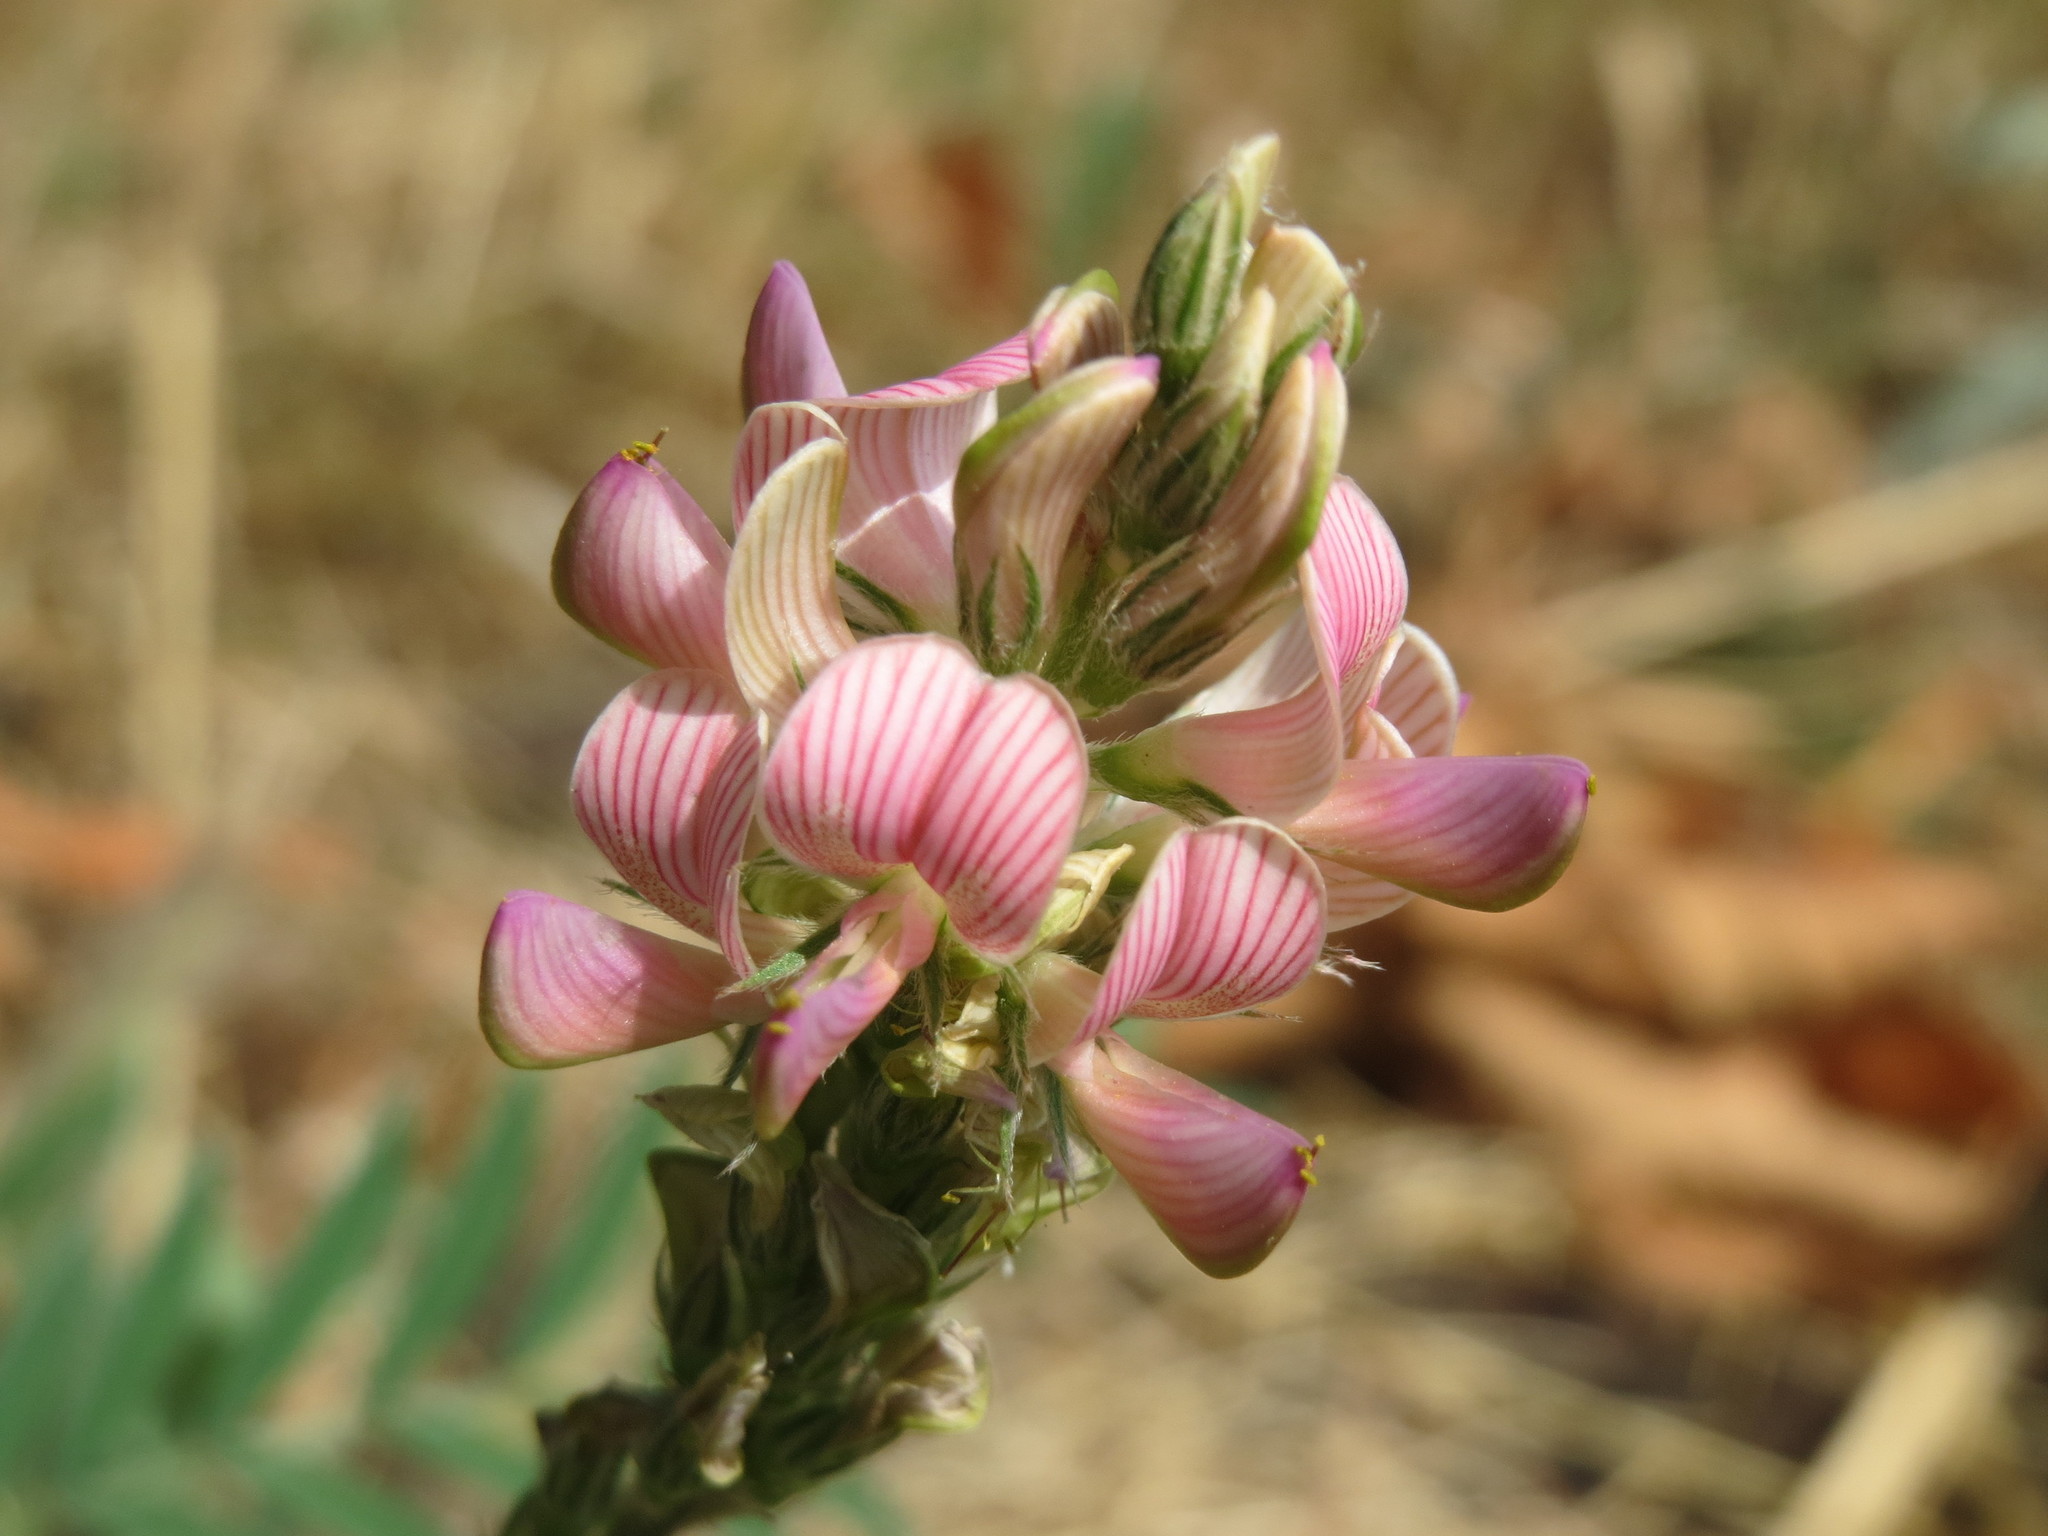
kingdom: Plantae
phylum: Tracheophyta
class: Magnoliopsida
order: Fabales
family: Fabaceae
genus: Onobrychis
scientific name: Onobrychis viciifolia
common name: Sainfoin
